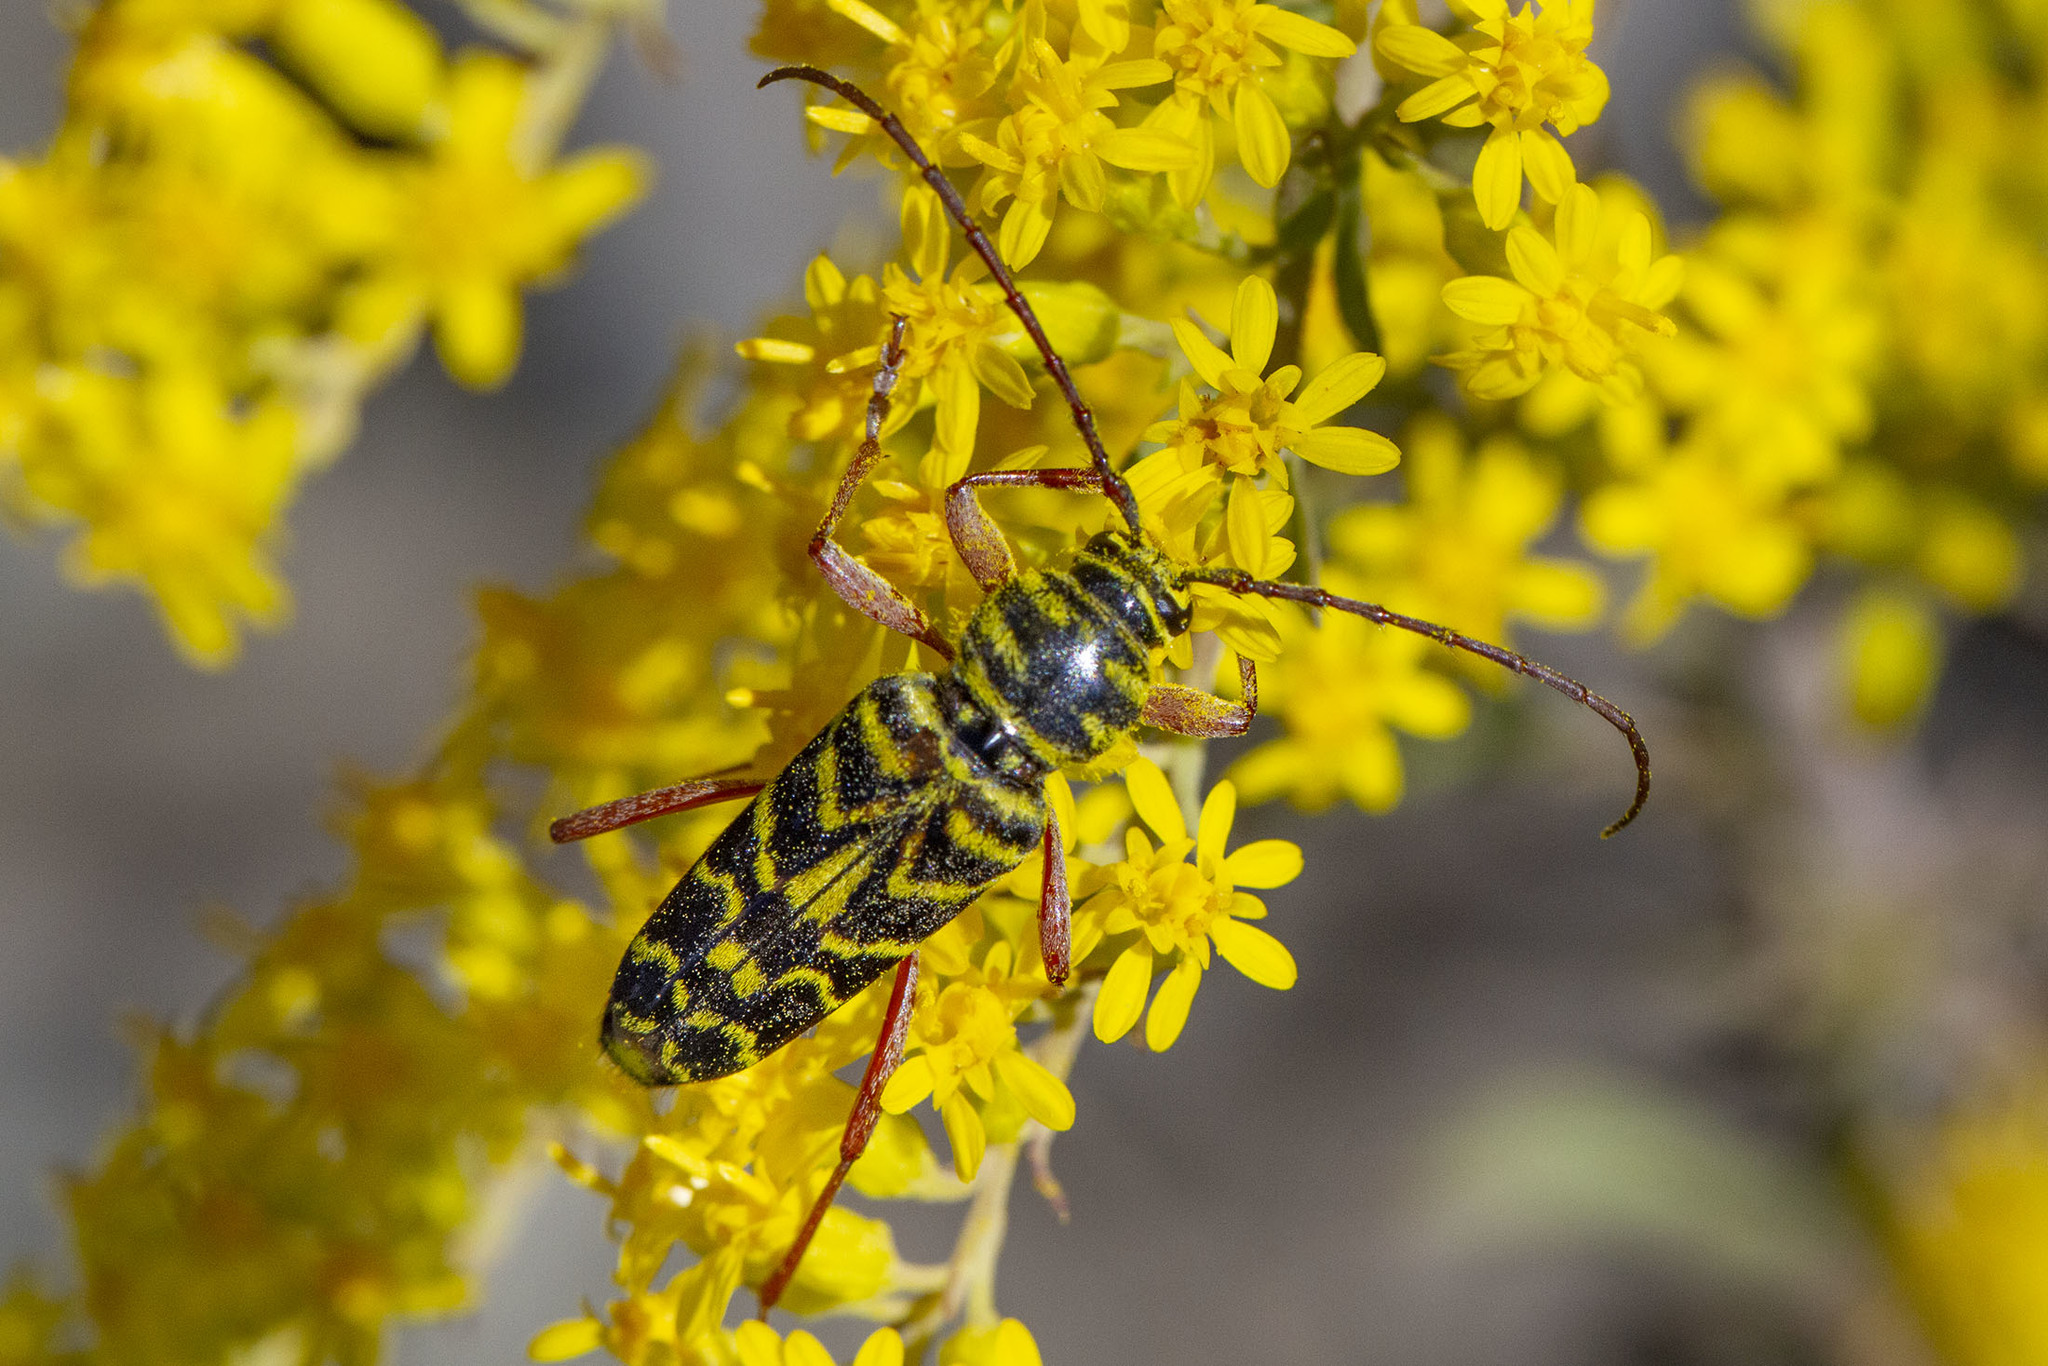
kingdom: Animalia
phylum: Arthropoda
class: Insecta
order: Coleoptera
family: Cerambycidae
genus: Megacyllene
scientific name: Megacyllene robiniae
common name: Locust borer
